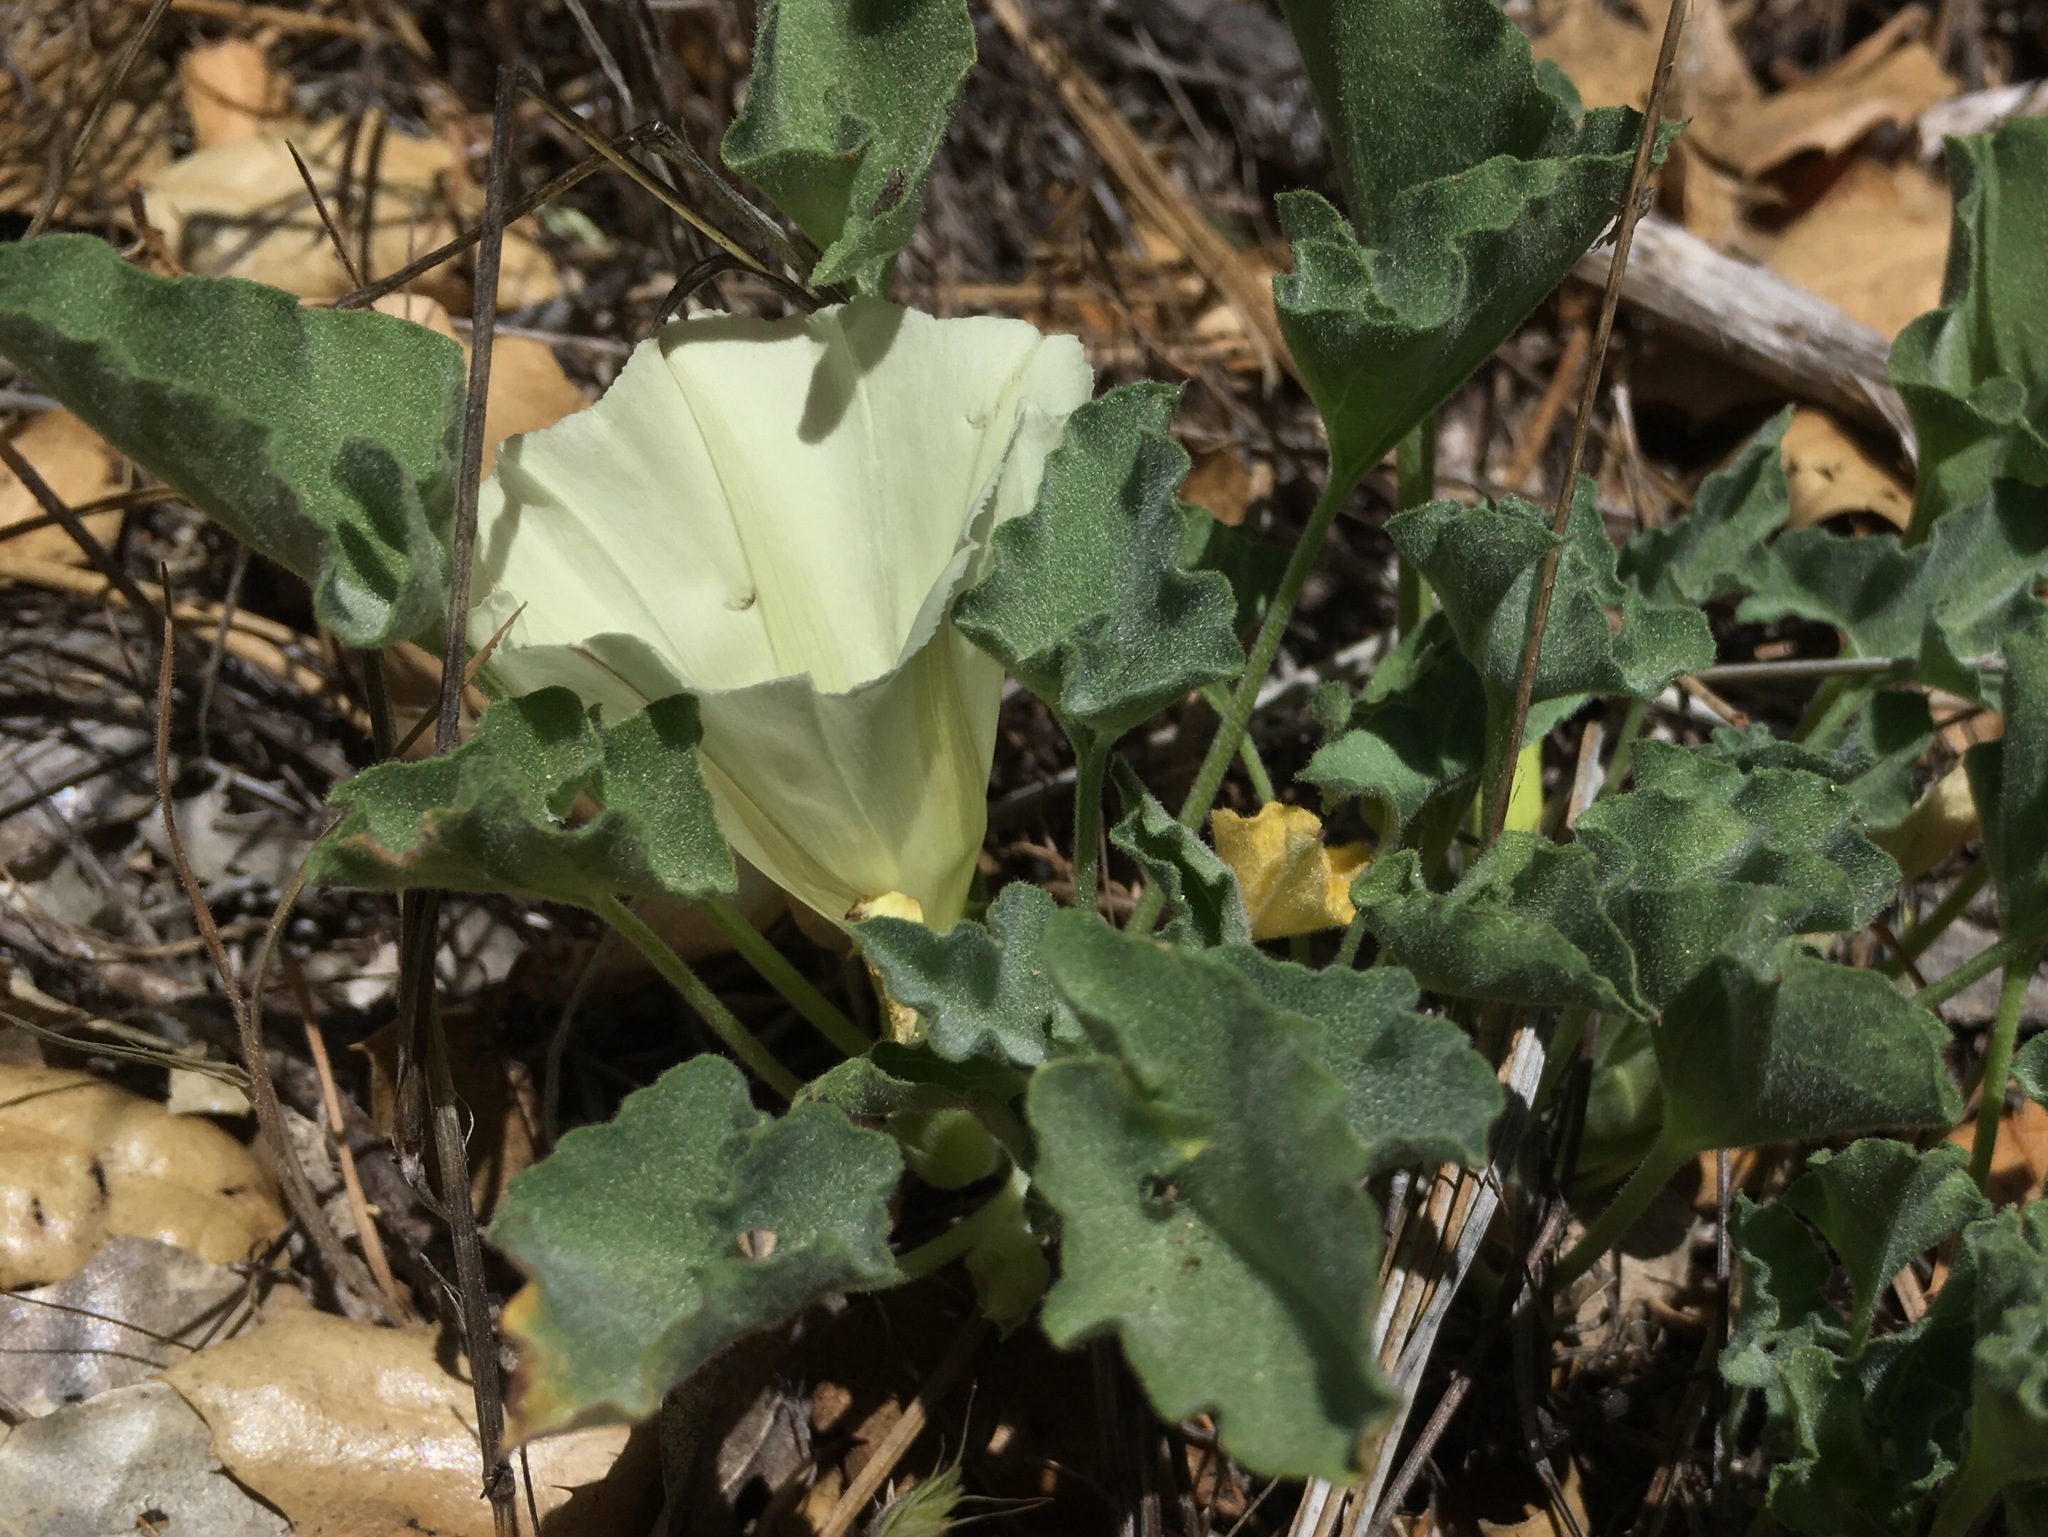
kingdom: Plantae
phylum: Tracheophyta
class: Magnoliopsida
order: Solanales
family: Convolvulaceae
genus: Calystegia
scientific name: Calystegia collina
